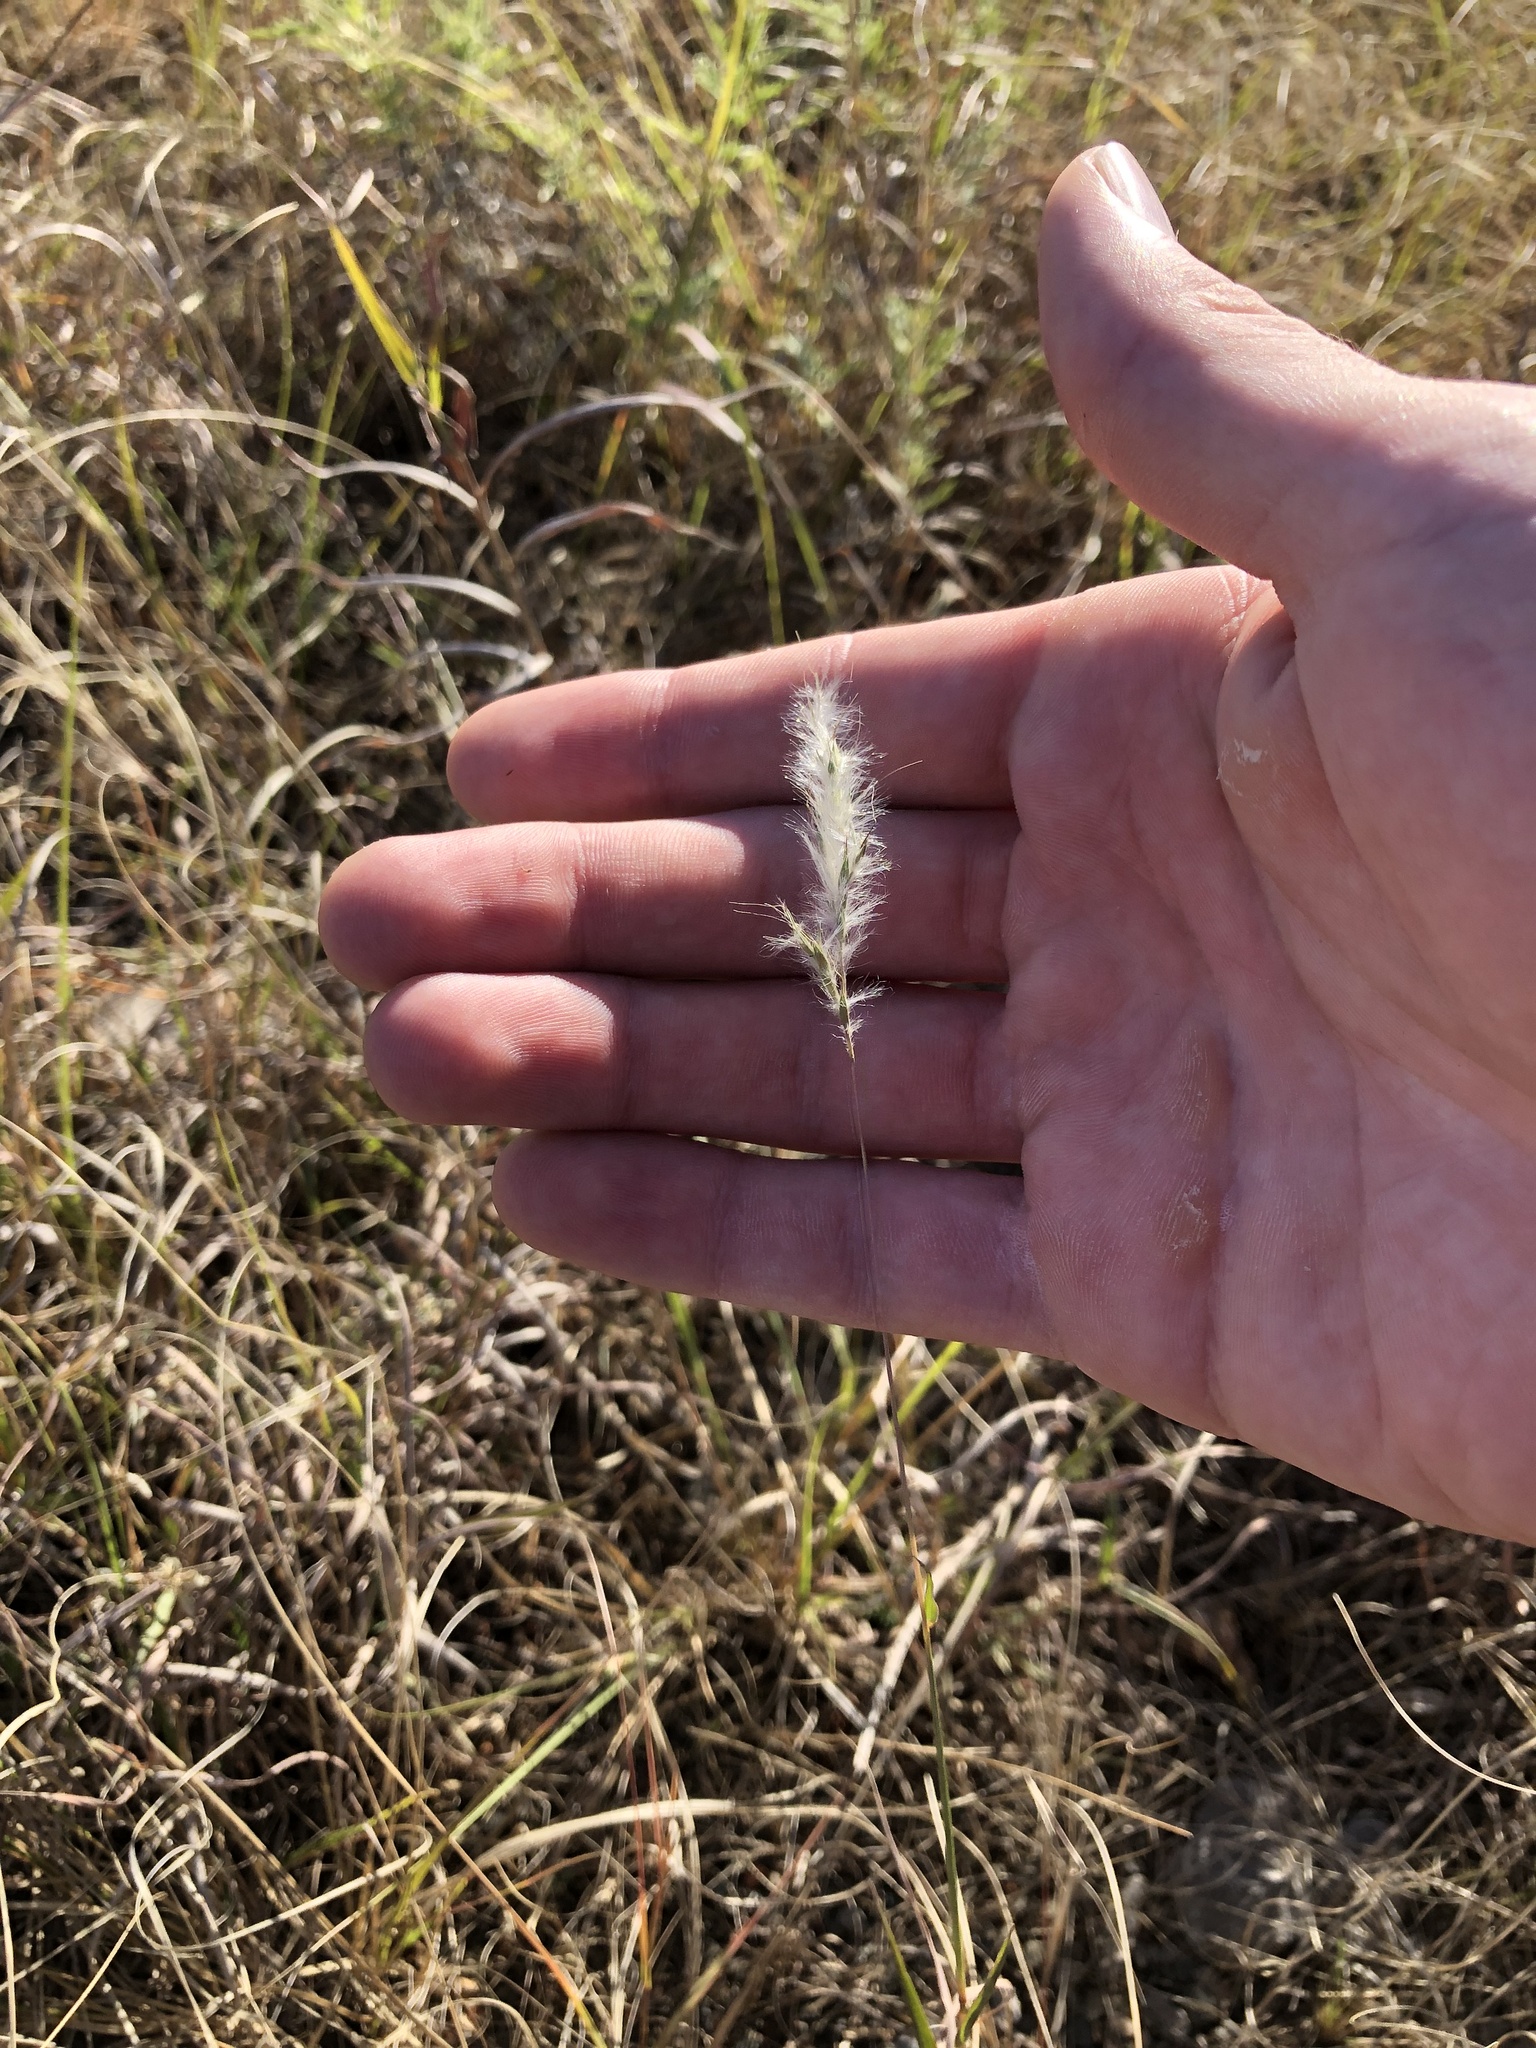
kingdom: Plantae
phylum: Tracheophyta
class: Liliopsida
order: Poales
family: Poaceae
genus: Bothriochloa
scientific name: Bothriochloa torreyana
